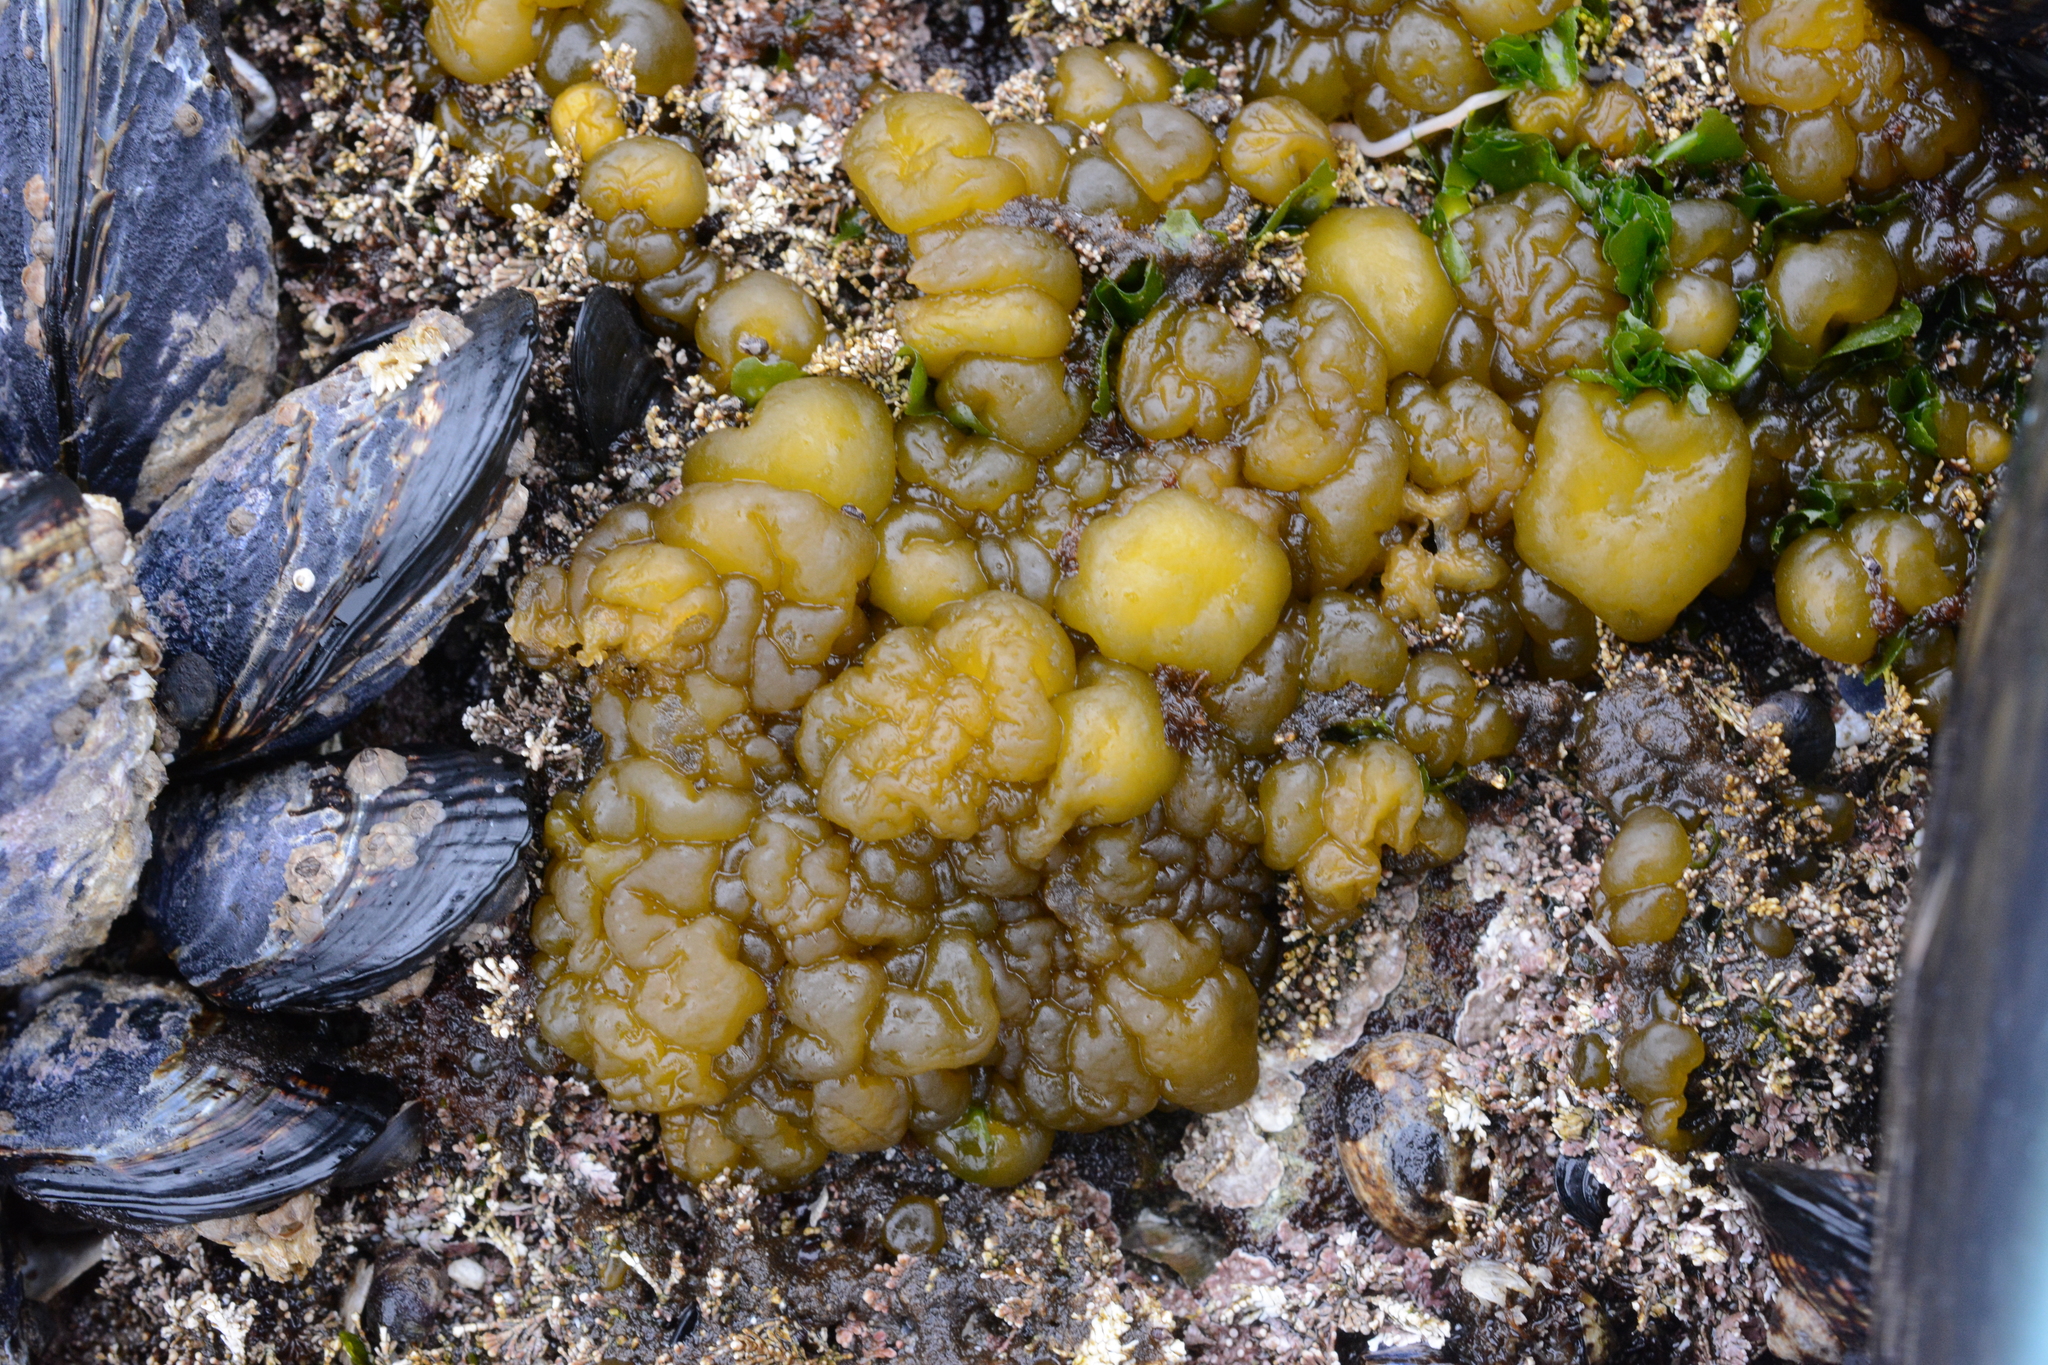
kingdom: Chromista
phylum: Ochrophyta
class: Phaeophyceae
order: Ectocarpales
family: Chordariaceae
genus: Leathesia
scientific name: Leathesia marina
